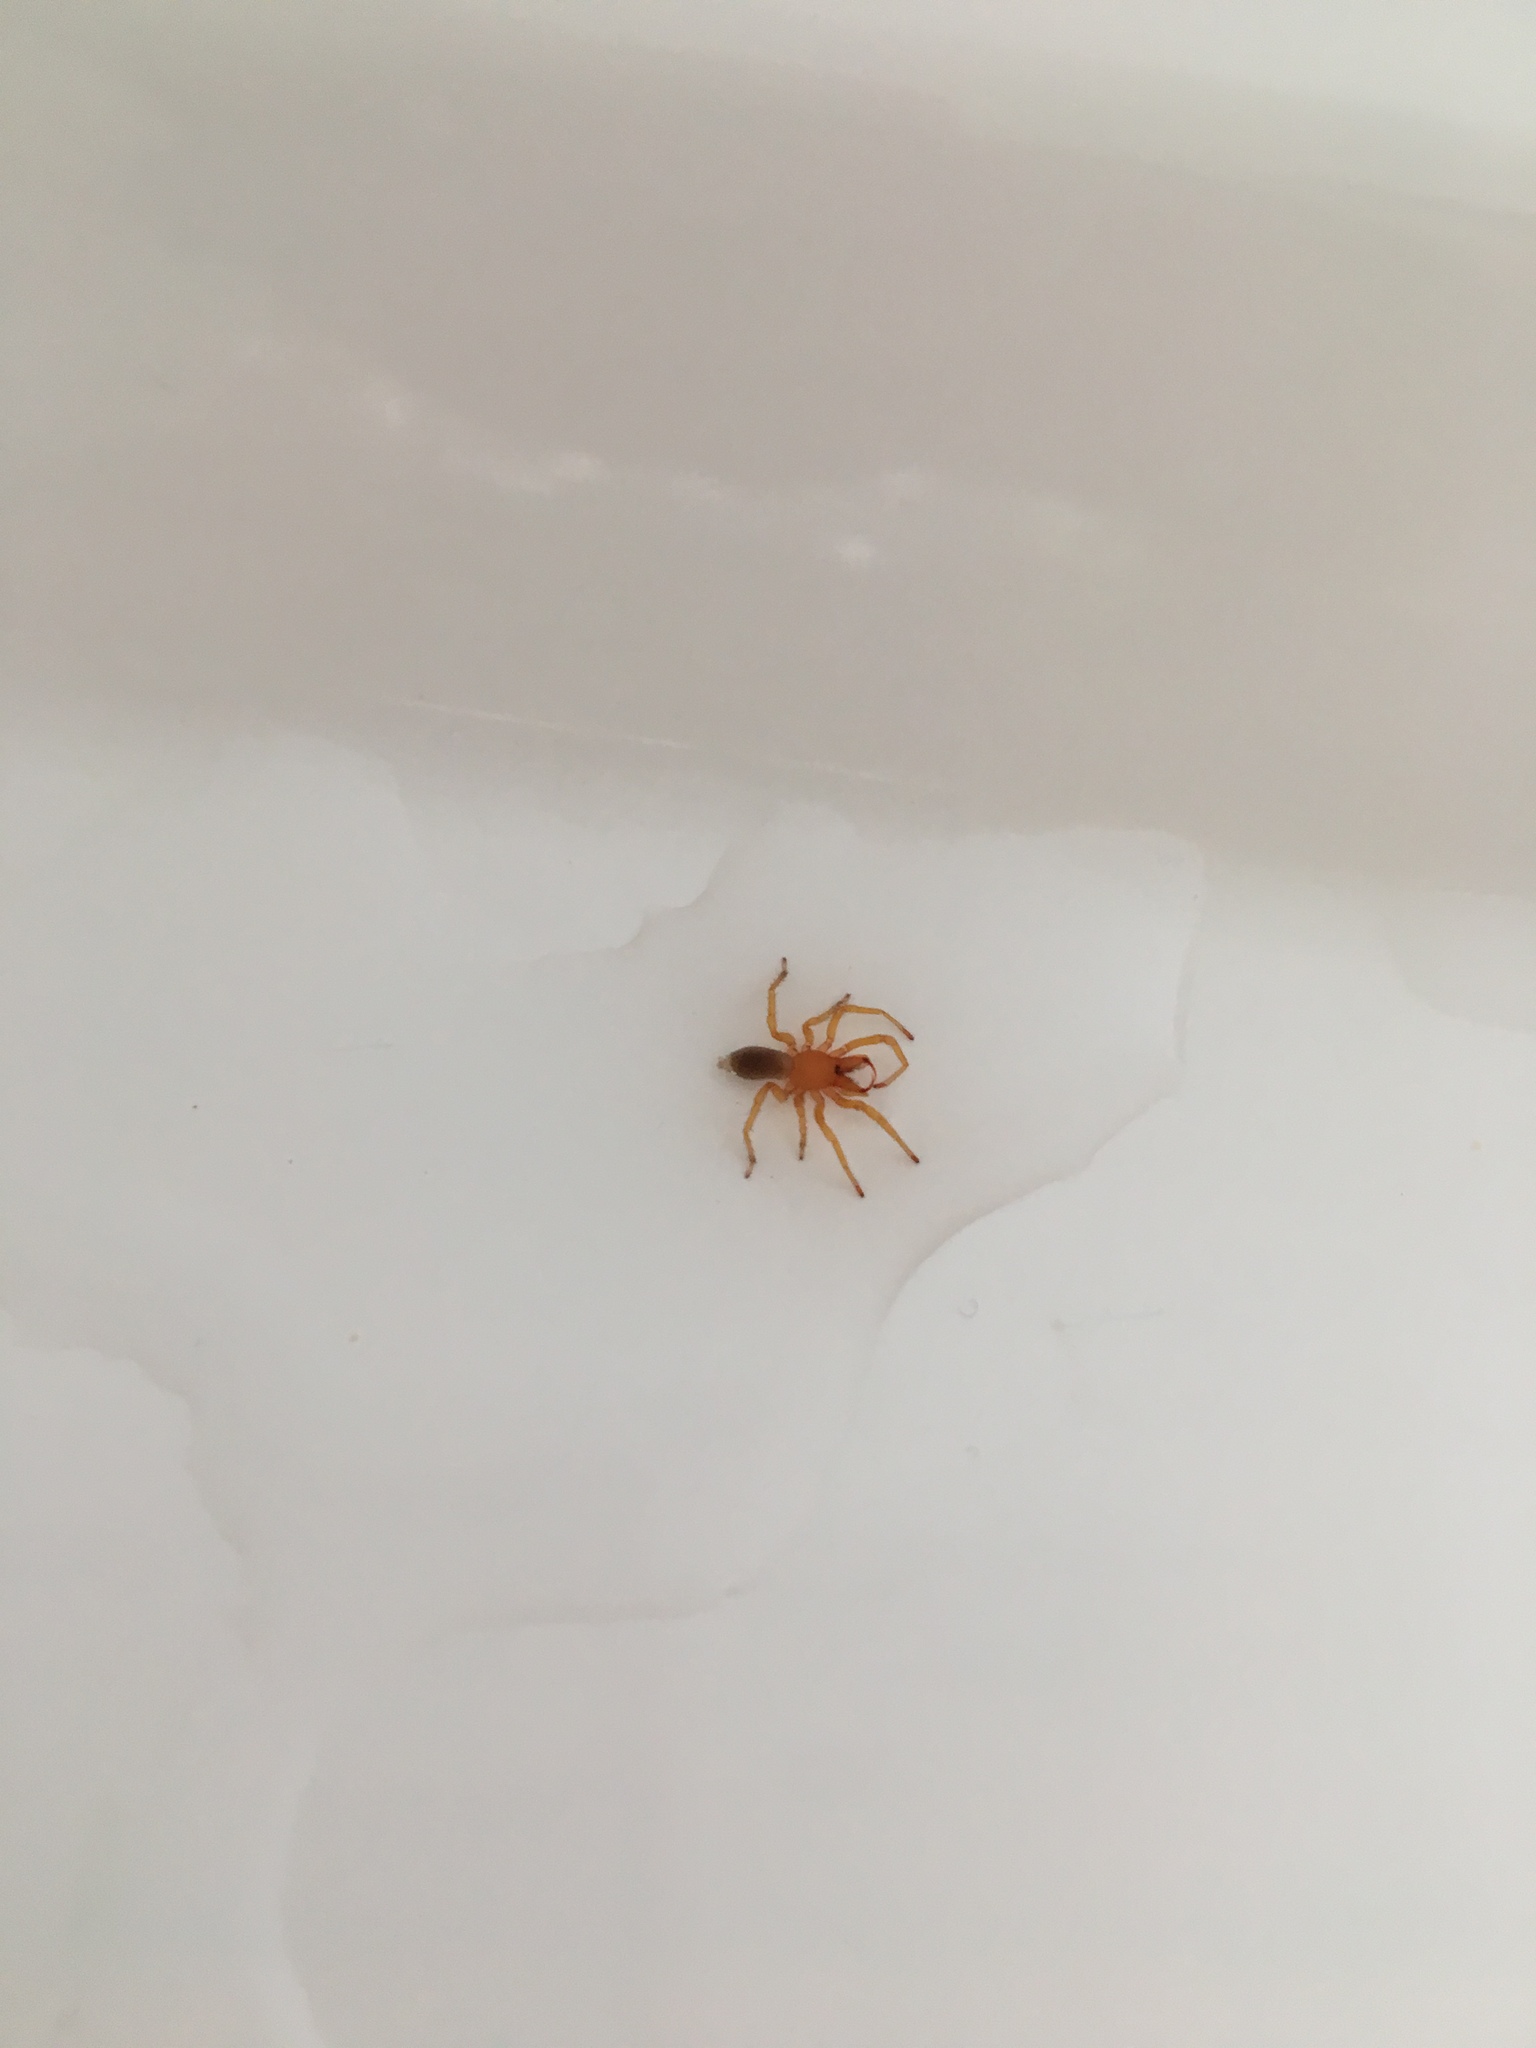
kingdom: Animalia
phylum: Arthropoda
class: Arachnida
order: Araneae
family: Dysderidae
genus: Dysdera
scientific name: Dysdera crocata
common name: Woodlouse spider
